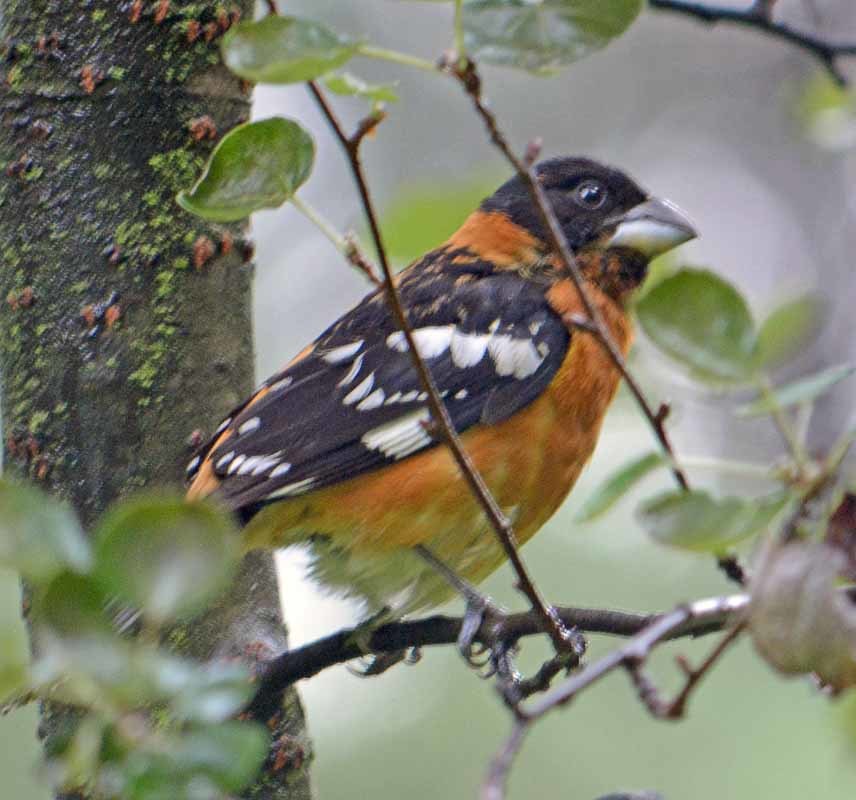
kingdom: Animalia
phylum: Chordata
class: Aves
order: Passeriformes
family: Cardinalidae
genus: Pheucticus
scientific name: Pheucticus melanocephalus
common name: Black-headed grosbeak
